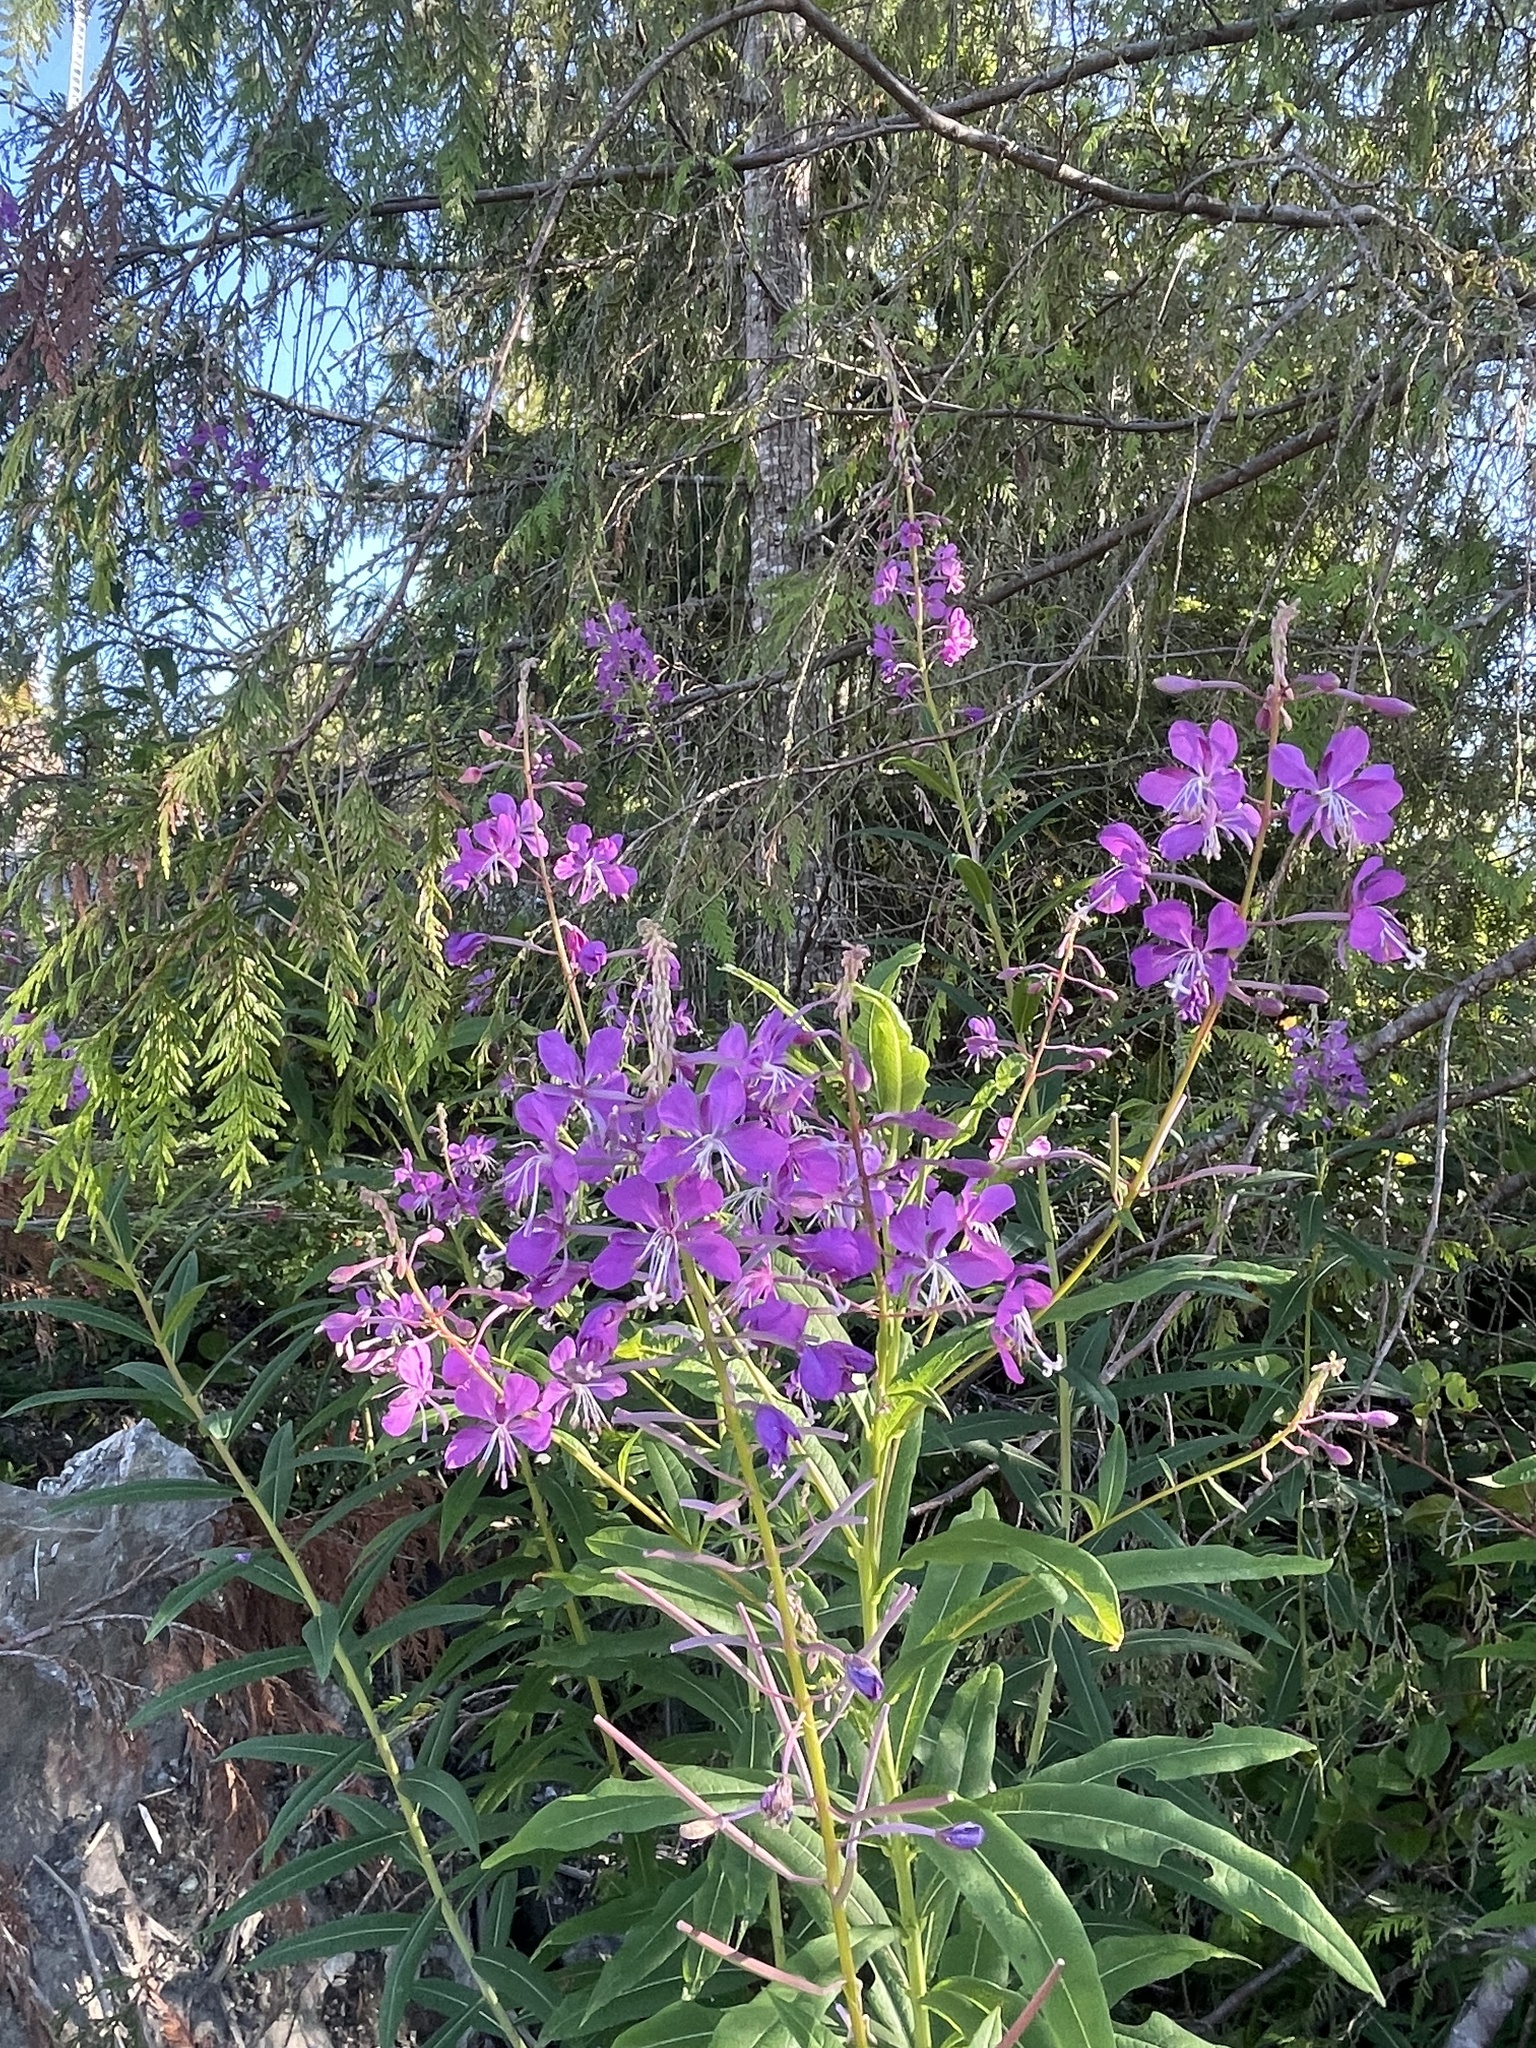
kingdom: Plantae
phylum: Tracheophyta
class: Magnoliopsida
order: Myrtales
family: Onagraceae
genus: Chamaenerion
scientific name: Chamaenerion angustifolium
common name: Fireweed
